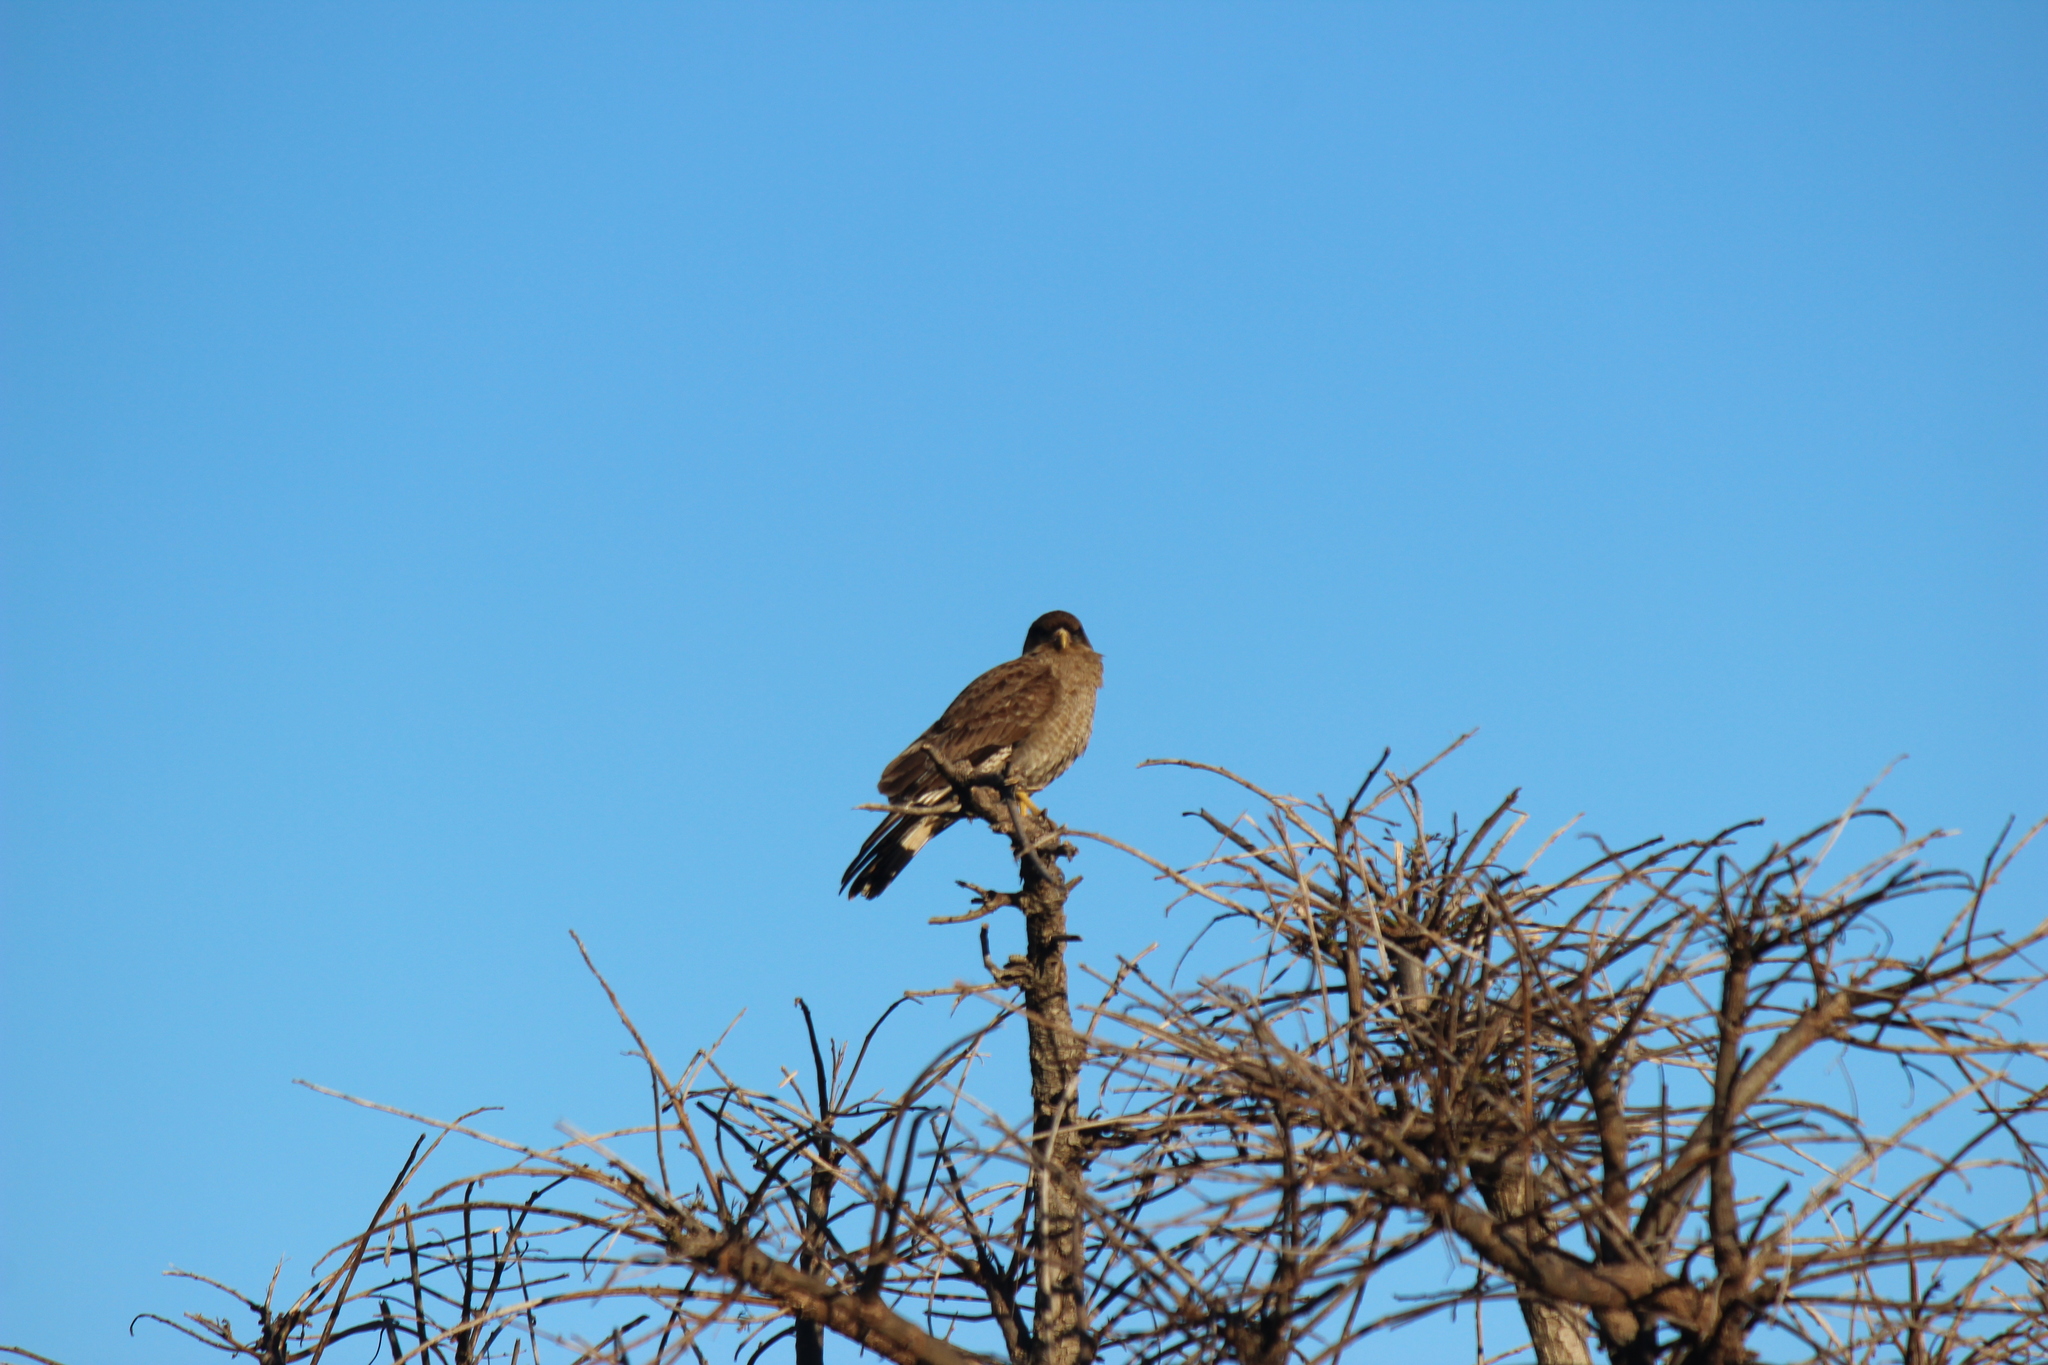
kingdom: Animalia
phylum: Chordata
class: Aves
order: Falconiformes
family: Falconidae
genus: Daptrius
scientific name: Daptrius
